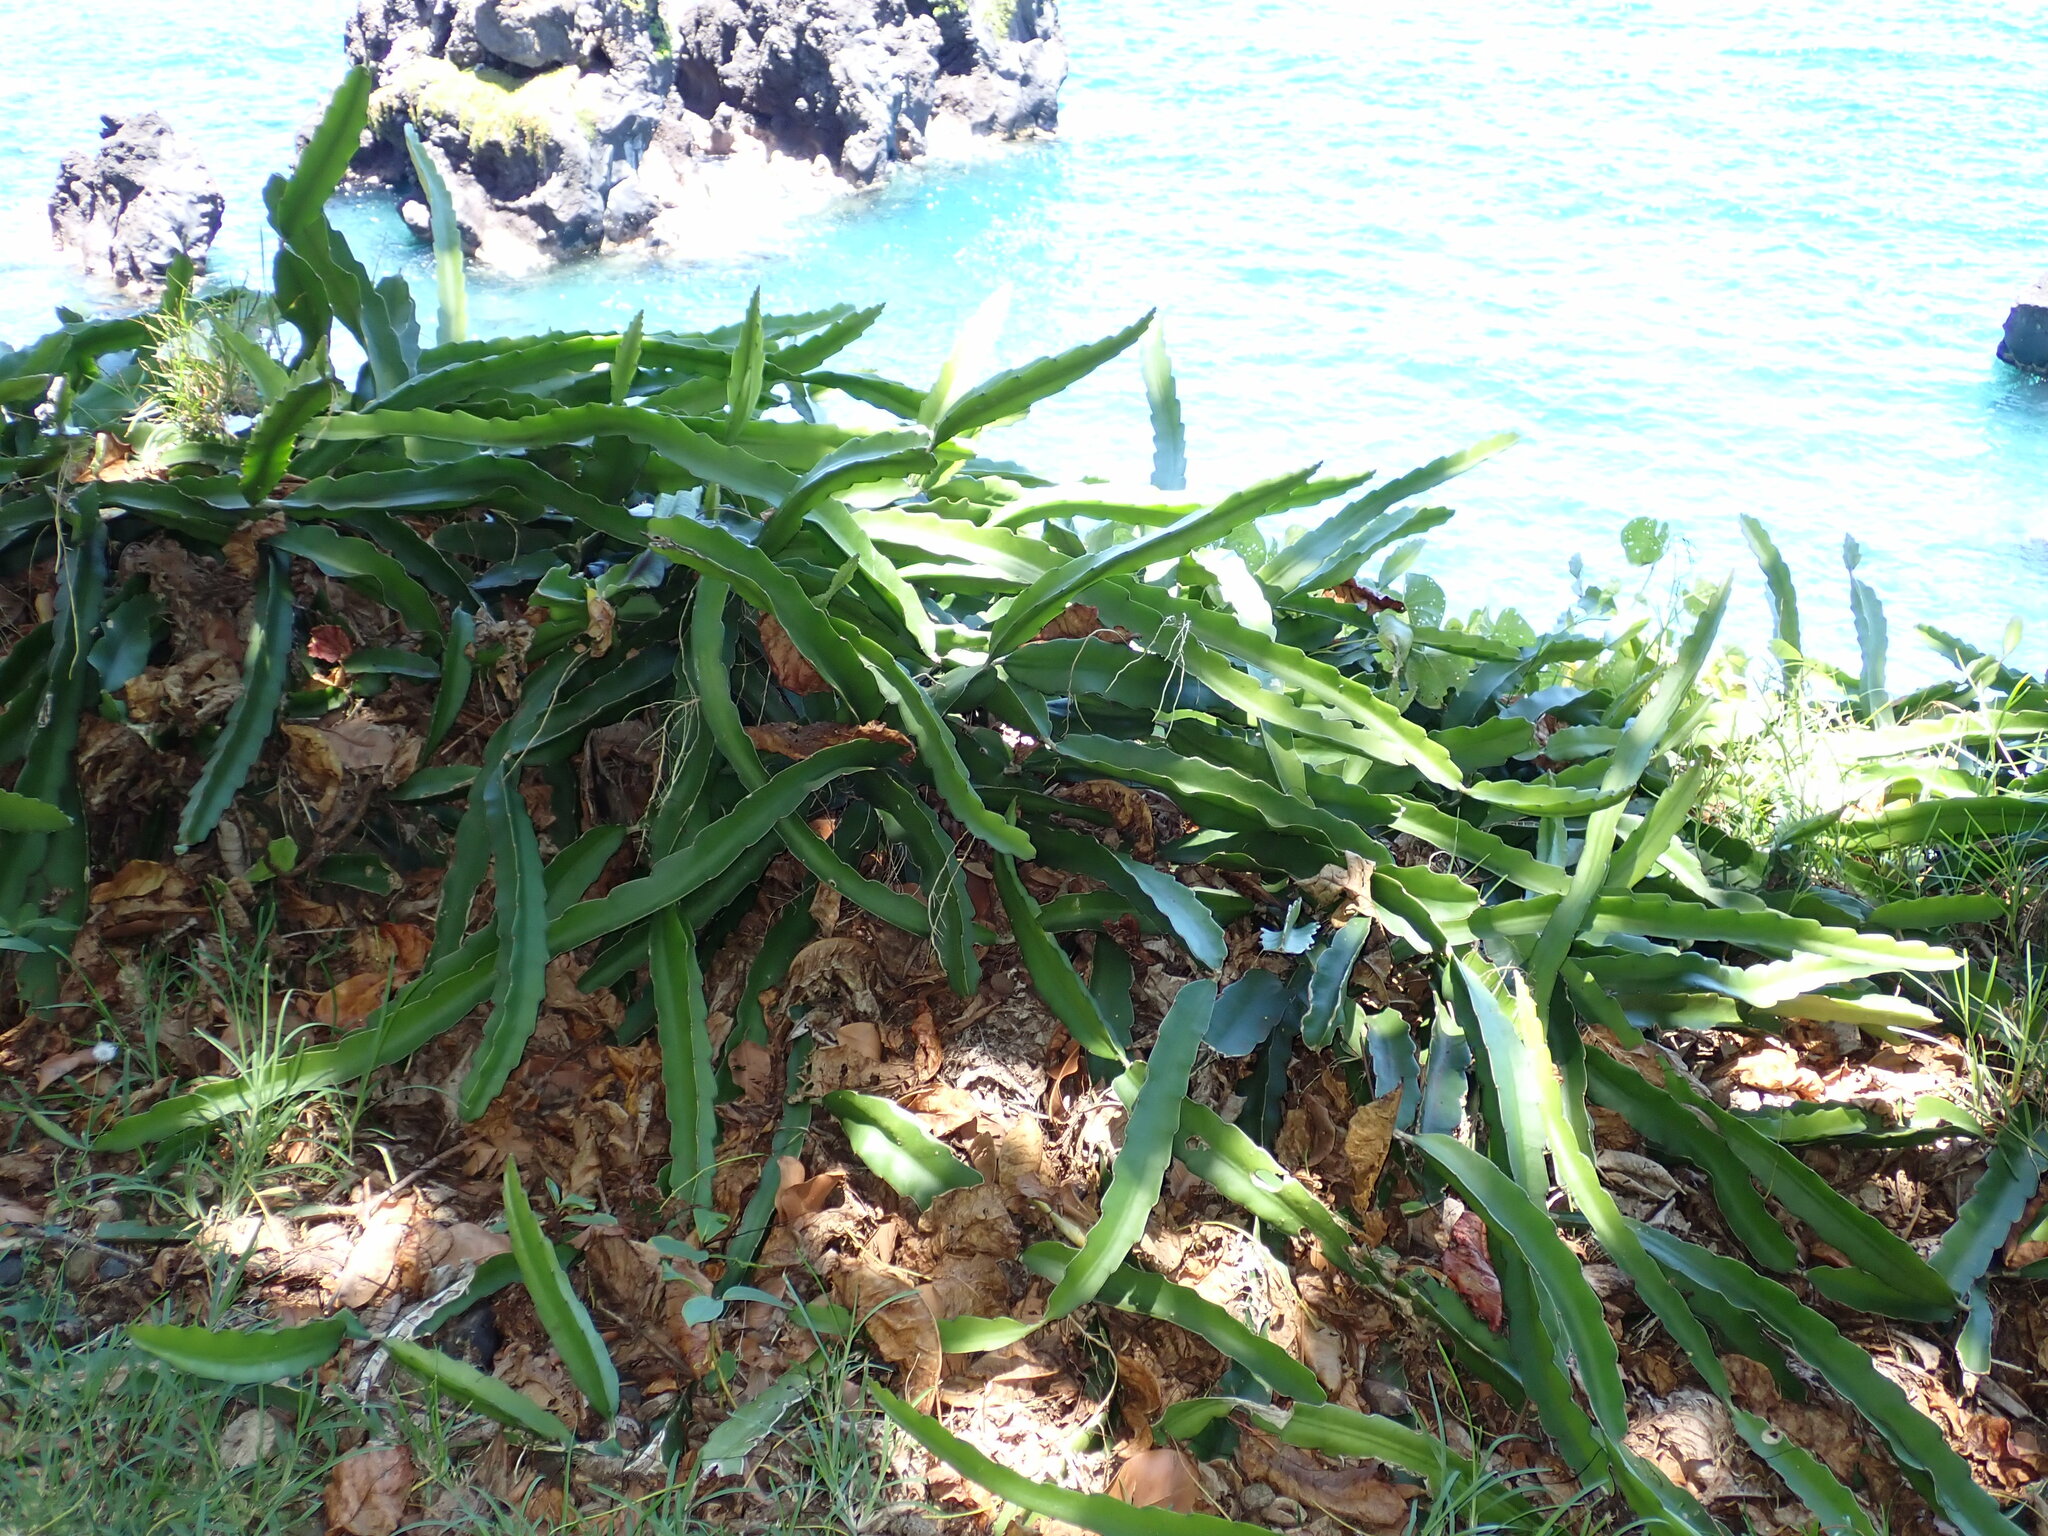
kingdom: Plantae
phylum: Tracheophyta
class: Magnoliopsida
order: Caryophyllales
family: Cactaceae
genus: Selenicereus
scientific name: Selenicereus undatus
